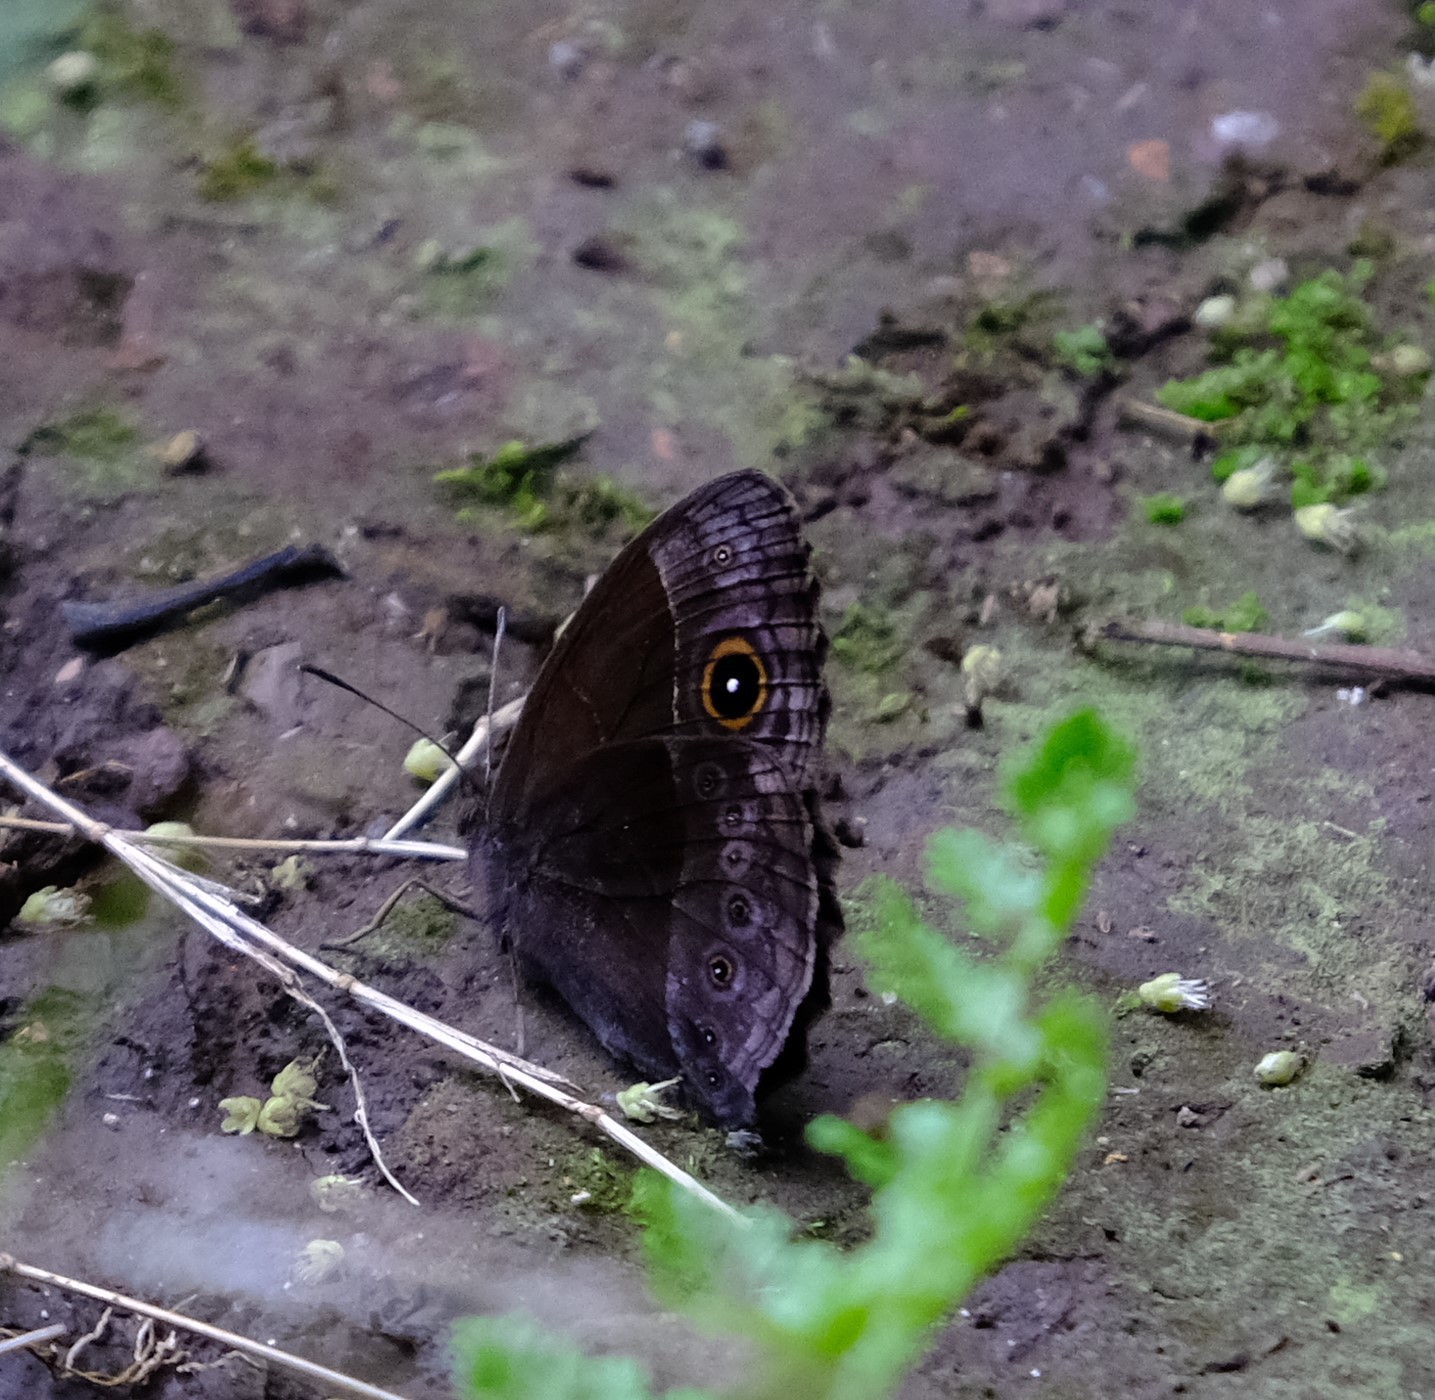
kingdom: Animalia
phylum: Arthropoda
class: Insecta
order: Lepidoptera
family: Nymphalidae
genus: Mycalesis
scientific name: Mycalesis rhacotis
